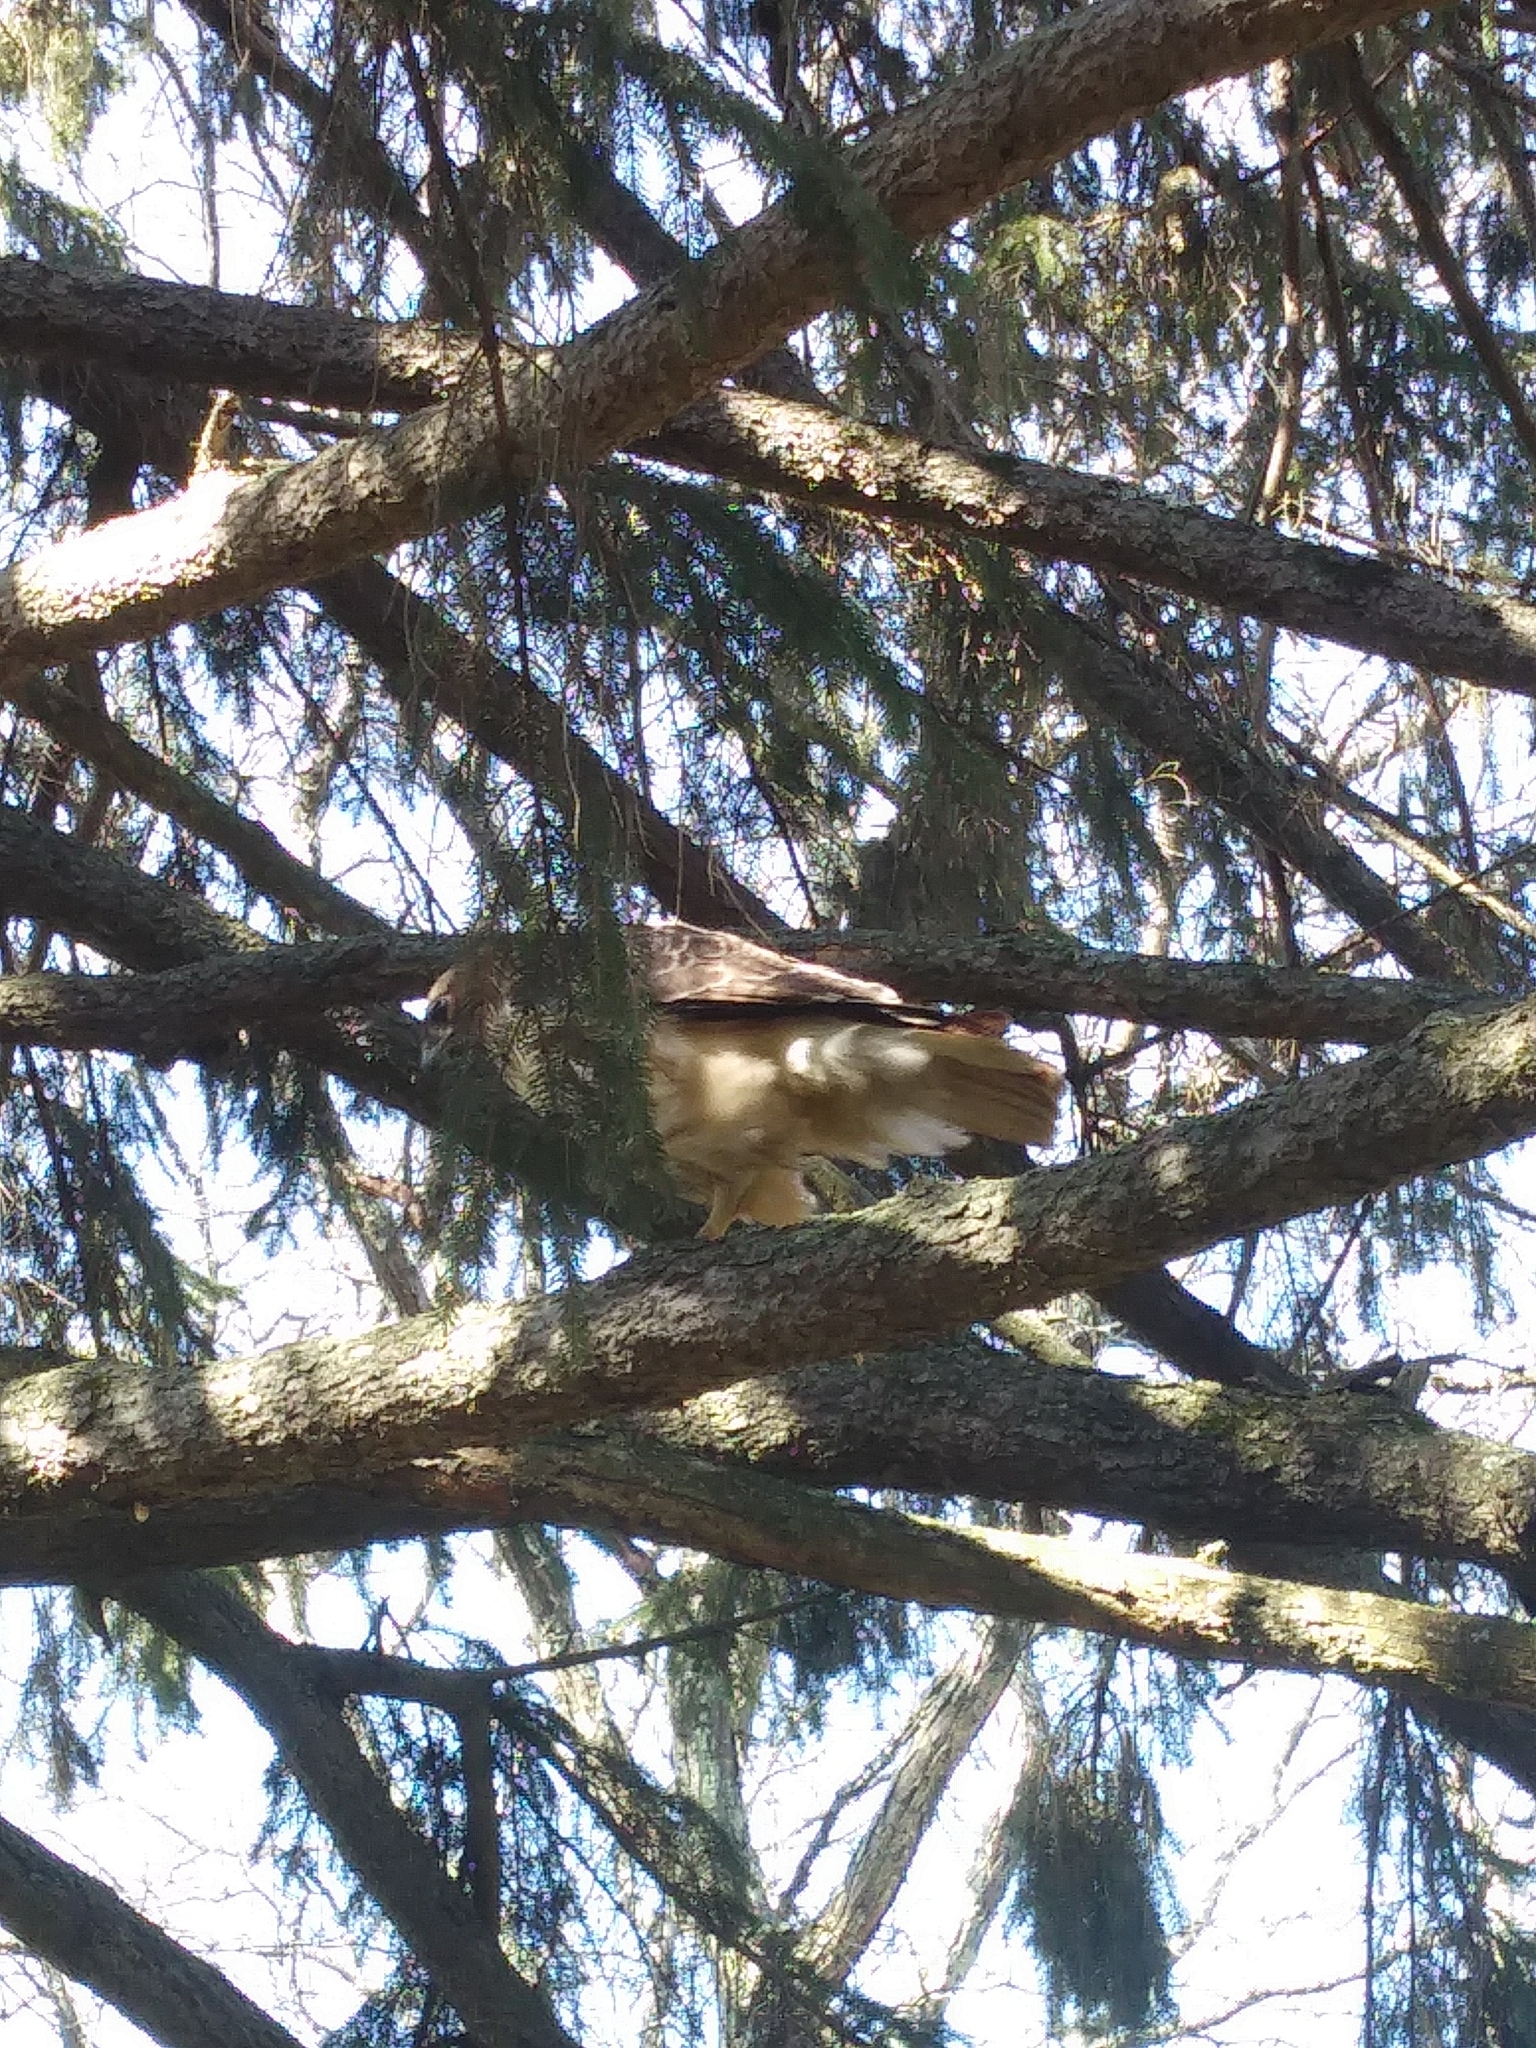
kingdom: Animalia
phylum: Chordata
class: Aves
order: Accipitriformes
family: Accipitridae
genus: Buteo
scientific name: Buteo jamaicensis
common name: Red-tailed hawk
